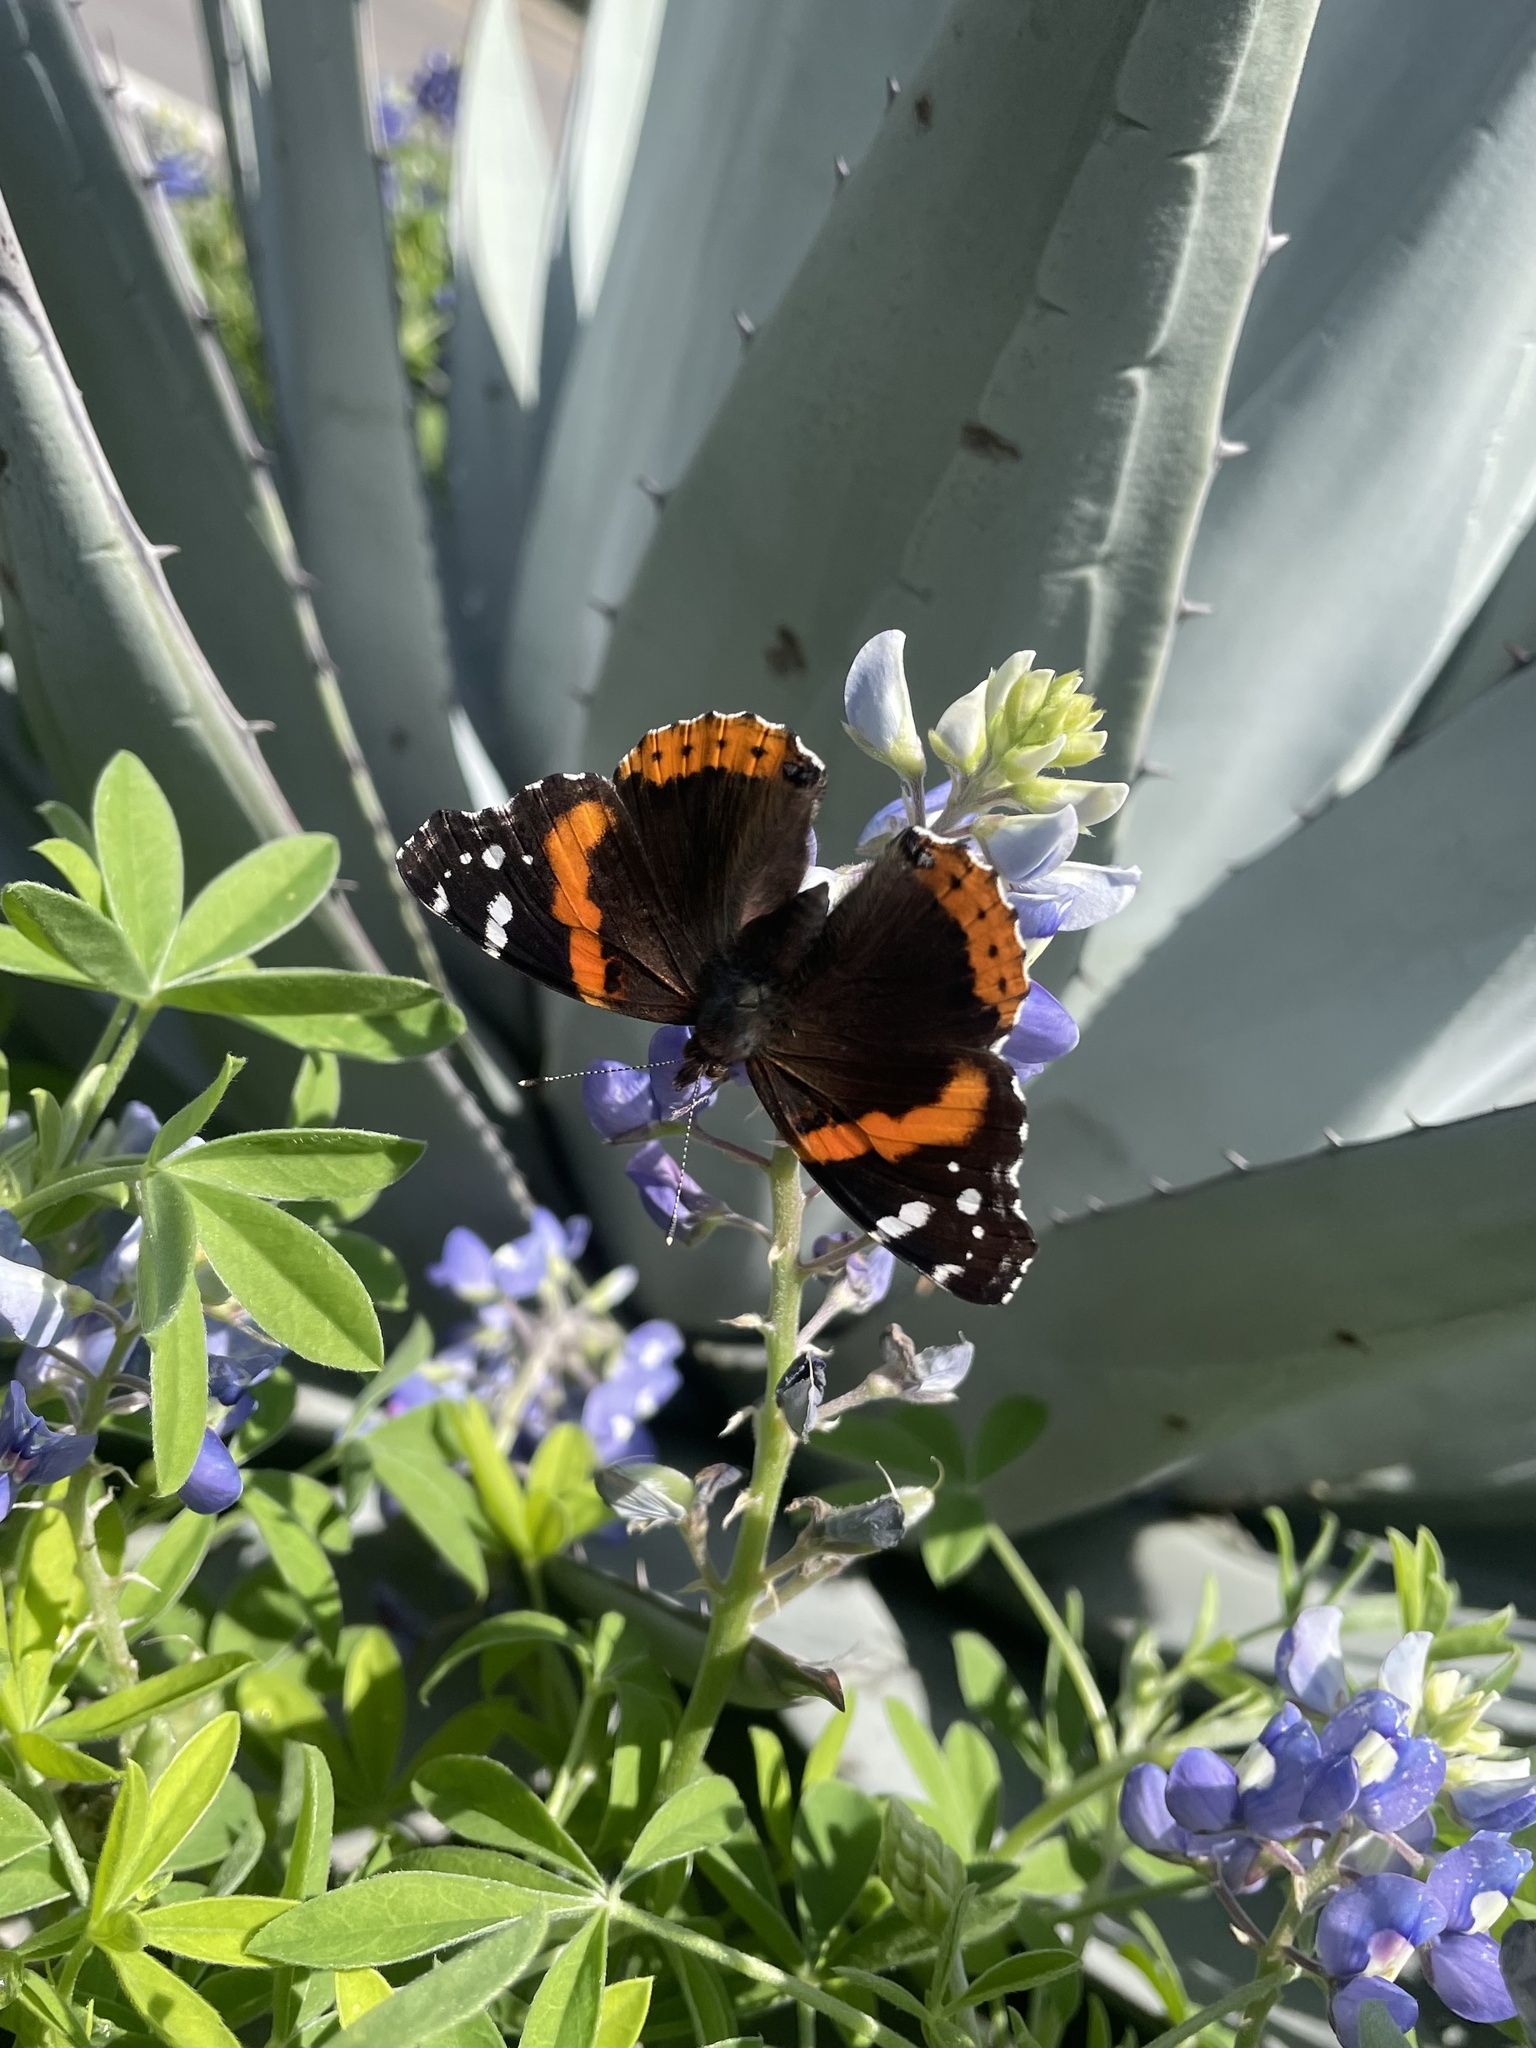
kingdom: Animalia
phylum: Arthropoda
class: Insecta
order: Lepidoptera
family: Nymphalidae
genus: Vanessa
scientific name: Vanessa atalanta
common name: Red admiral
